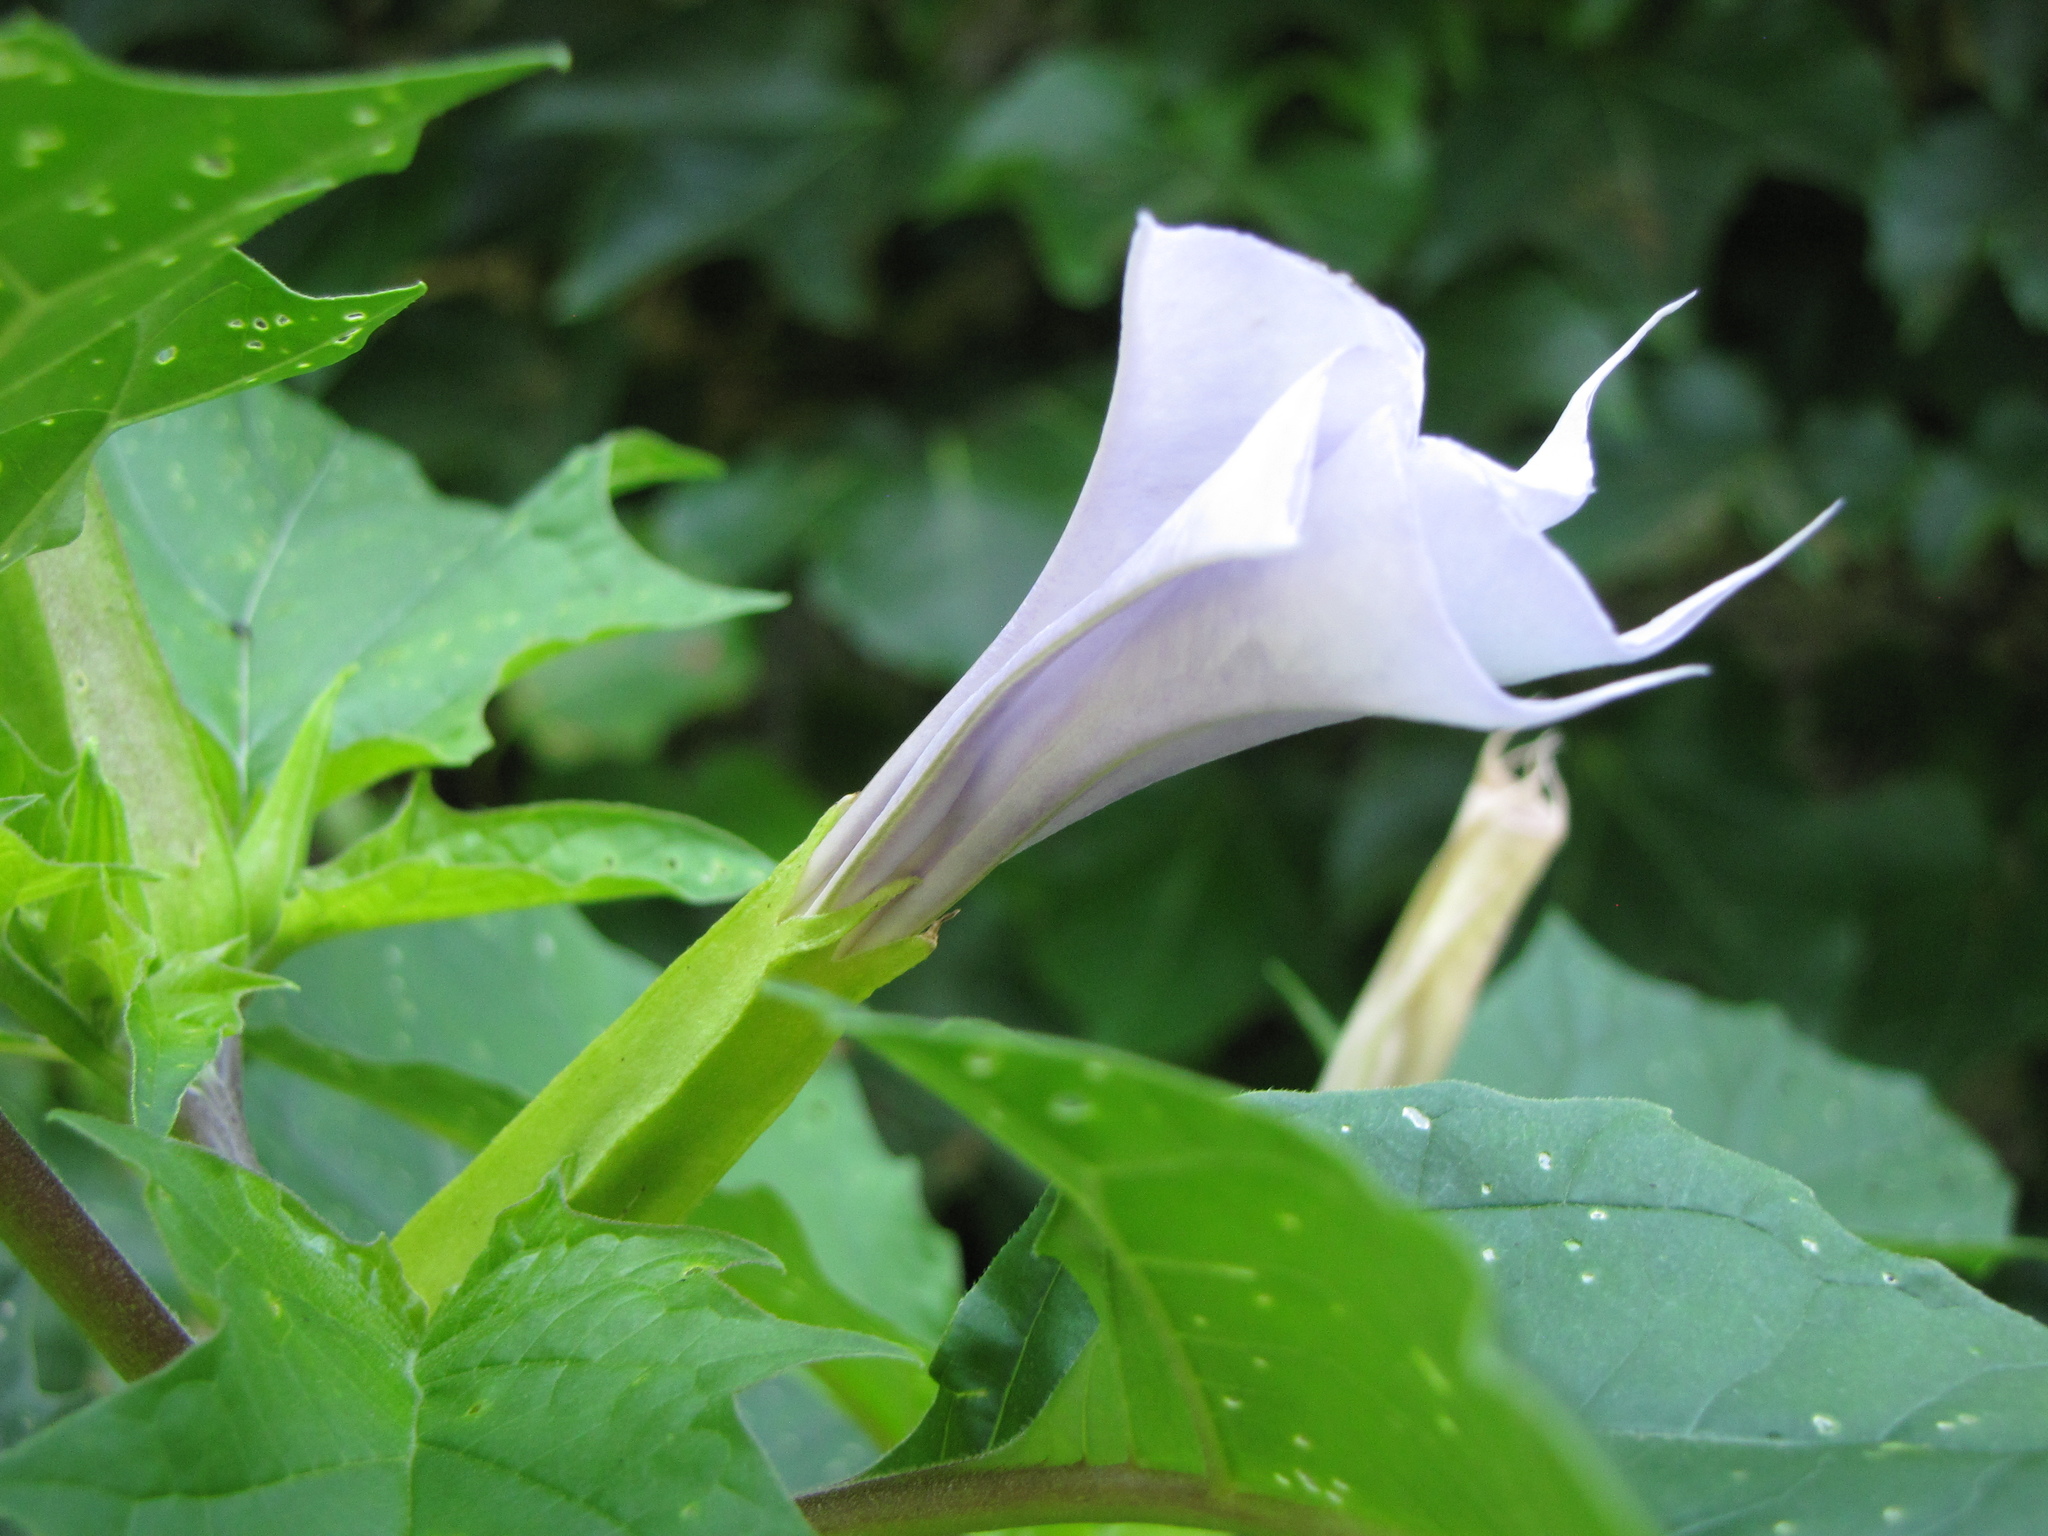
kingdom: Plantae
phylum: Tracheophyta
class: Magnoliopsida
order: Solanales
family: Solanaceae
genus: Datura
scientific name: Datura stramonium
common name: Thorn-apple
